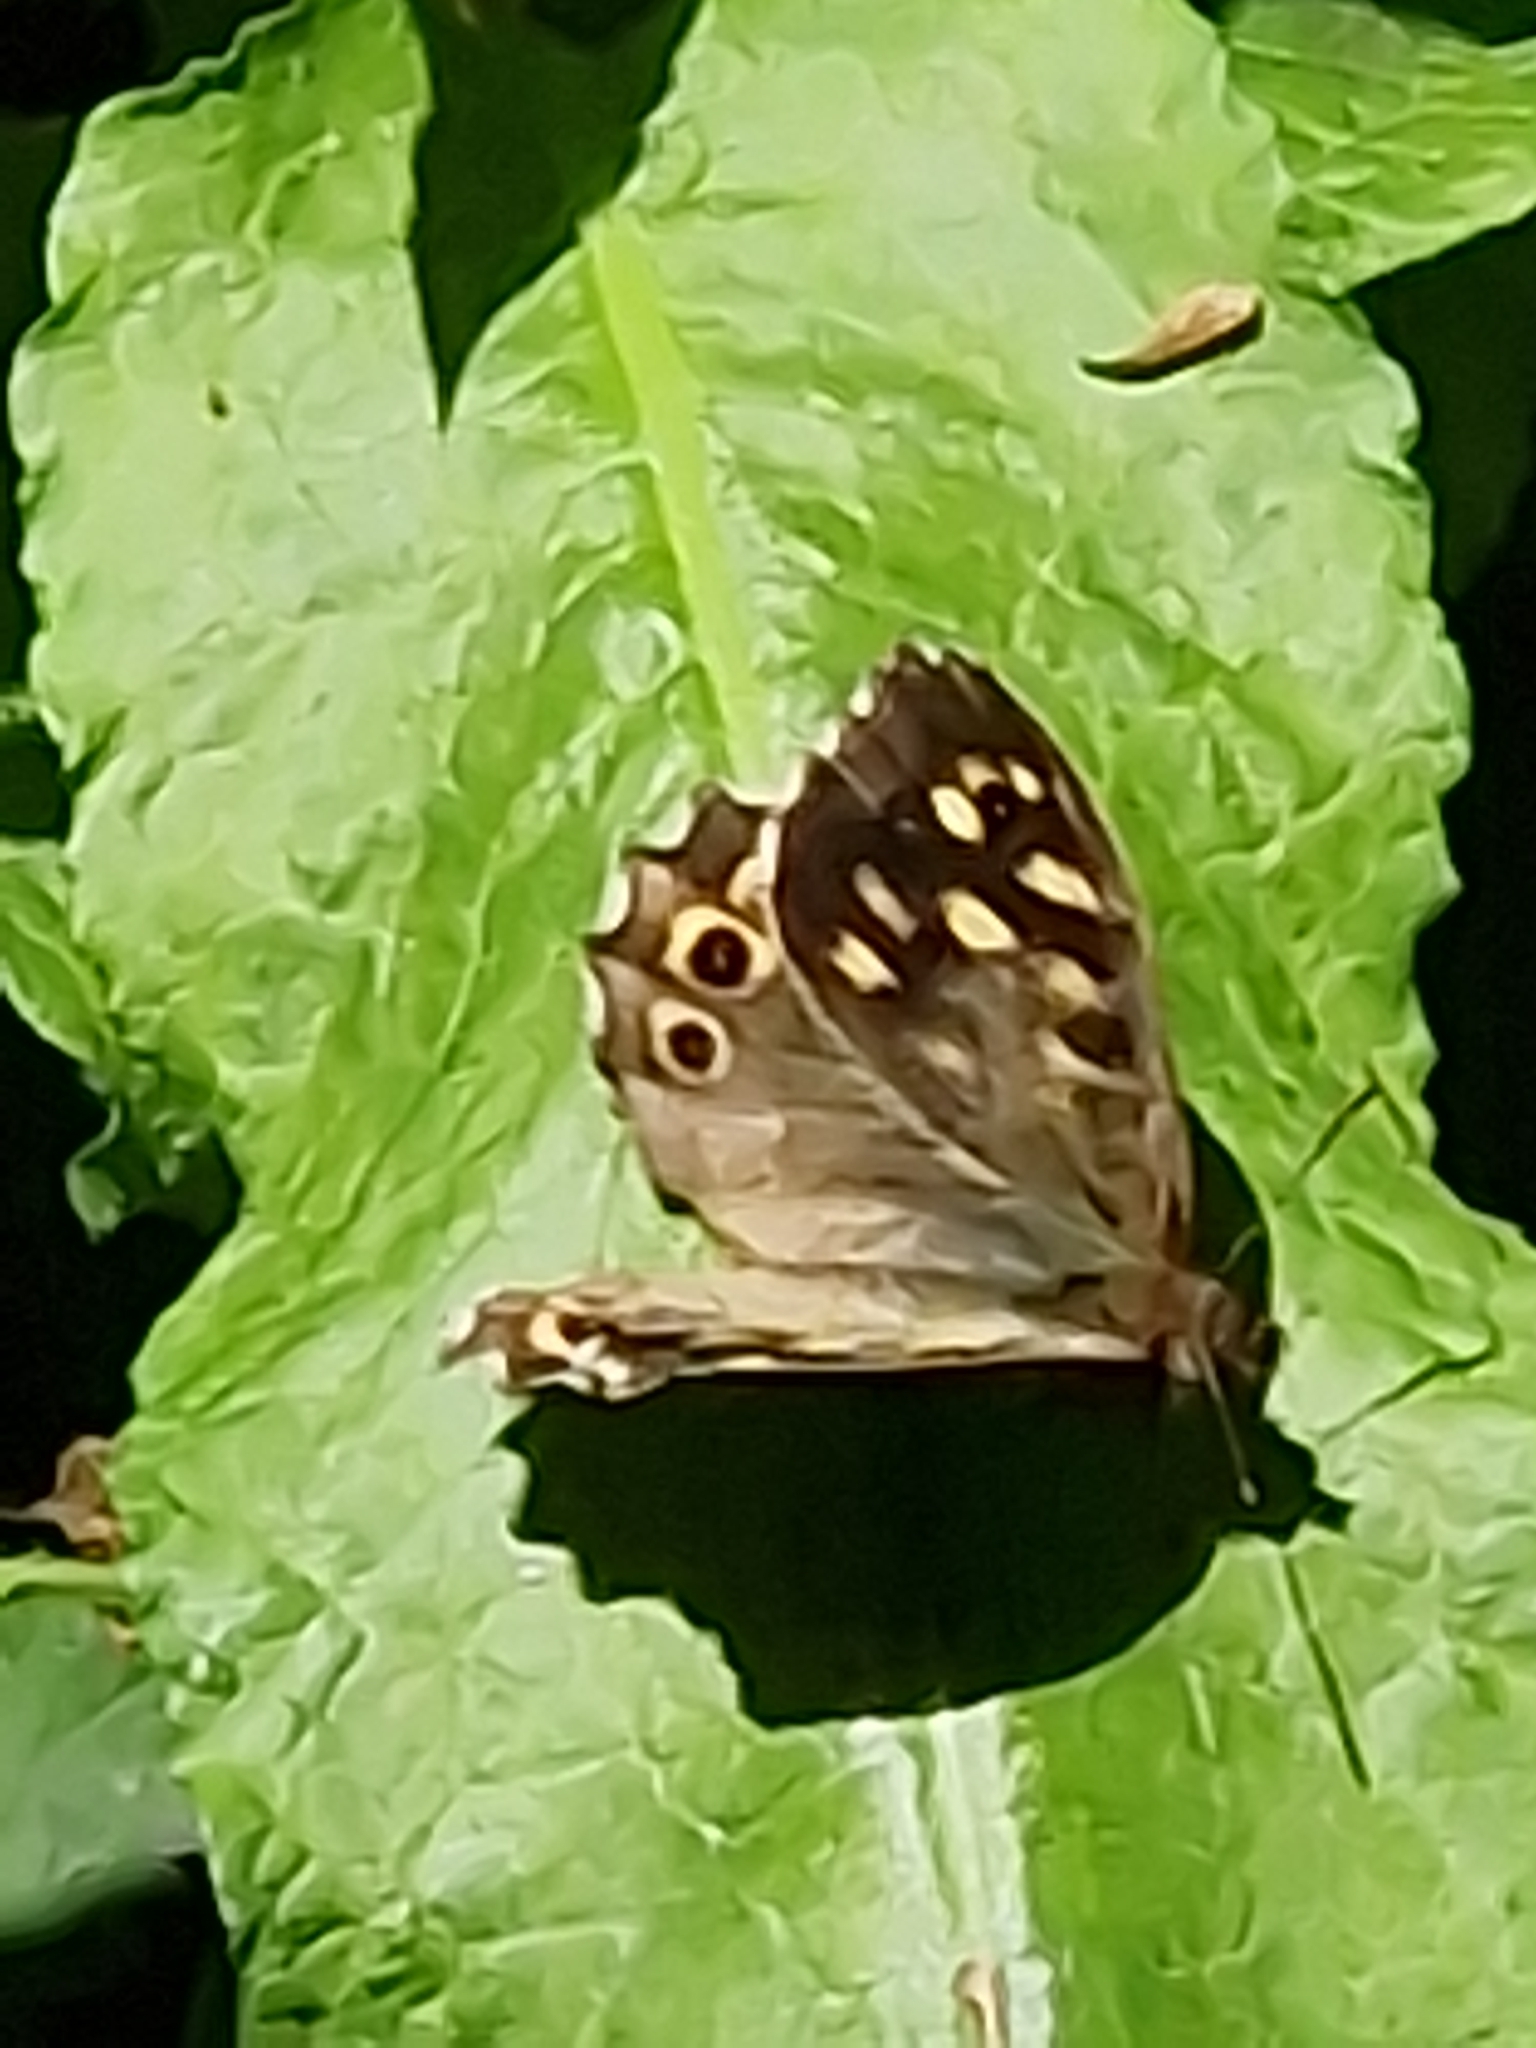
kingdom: Animalia
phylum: Arthropoda
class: Insecta
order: Lepidoptera
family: Nymphalidae
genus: Pararge
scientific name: Pararge aegeria
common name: Speckled wood
